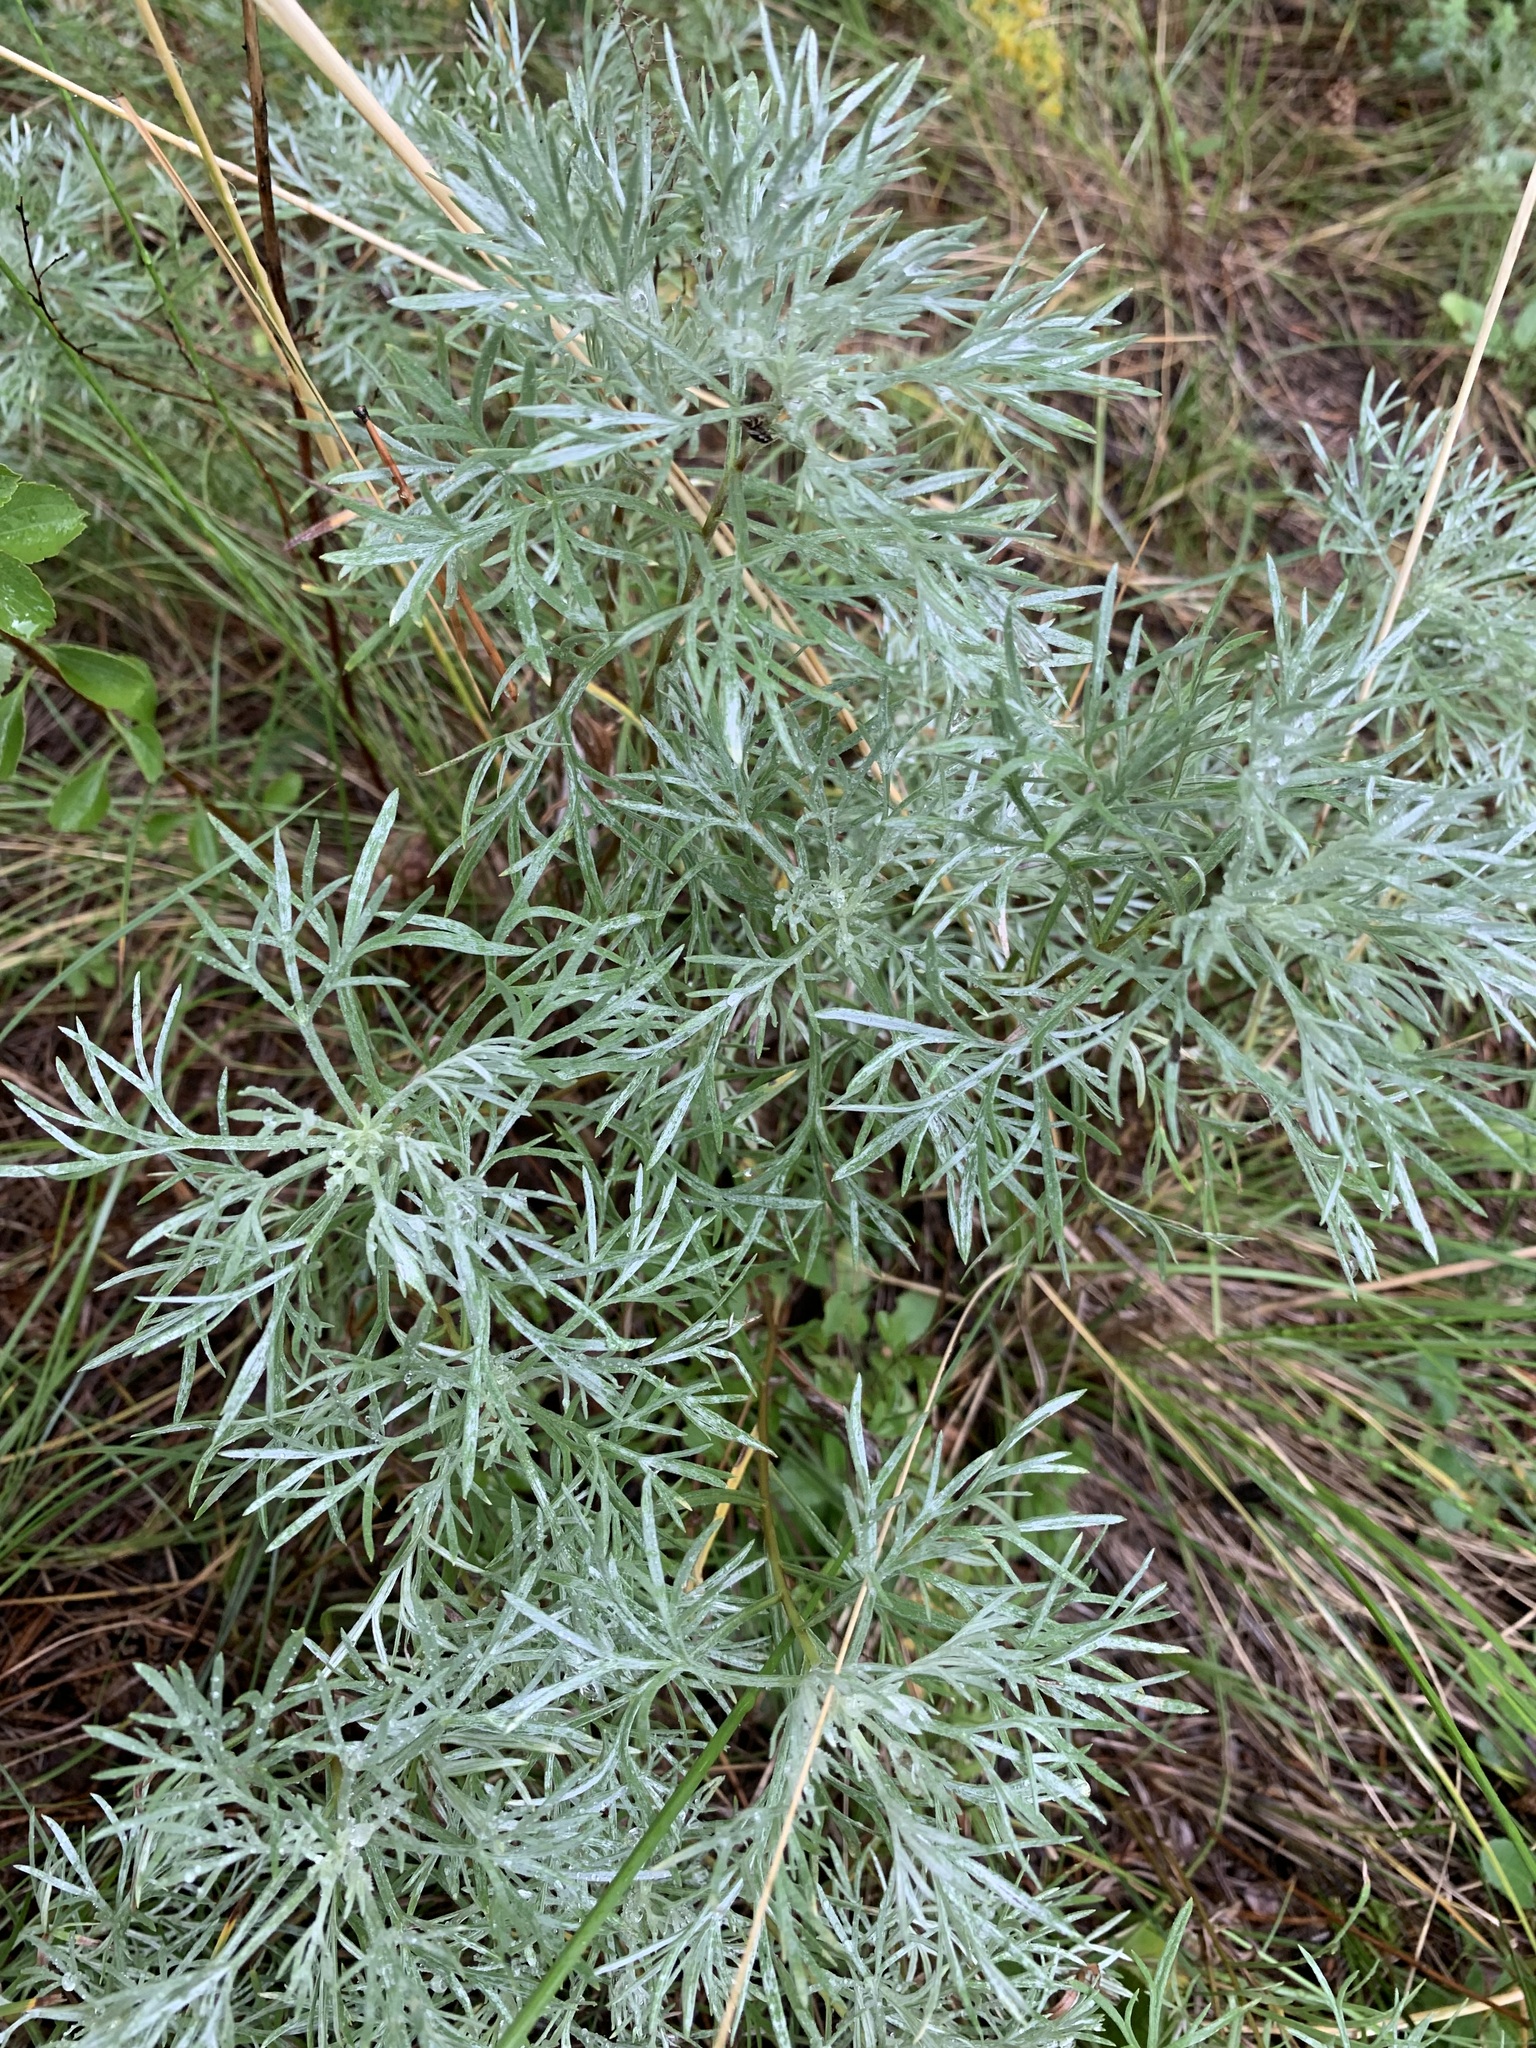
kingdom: Plantae
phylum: Tracheophyta
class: Magnoliopsida
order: Asterales
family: Asteraceae
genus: Artemisia
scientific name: Artemisia sericea
